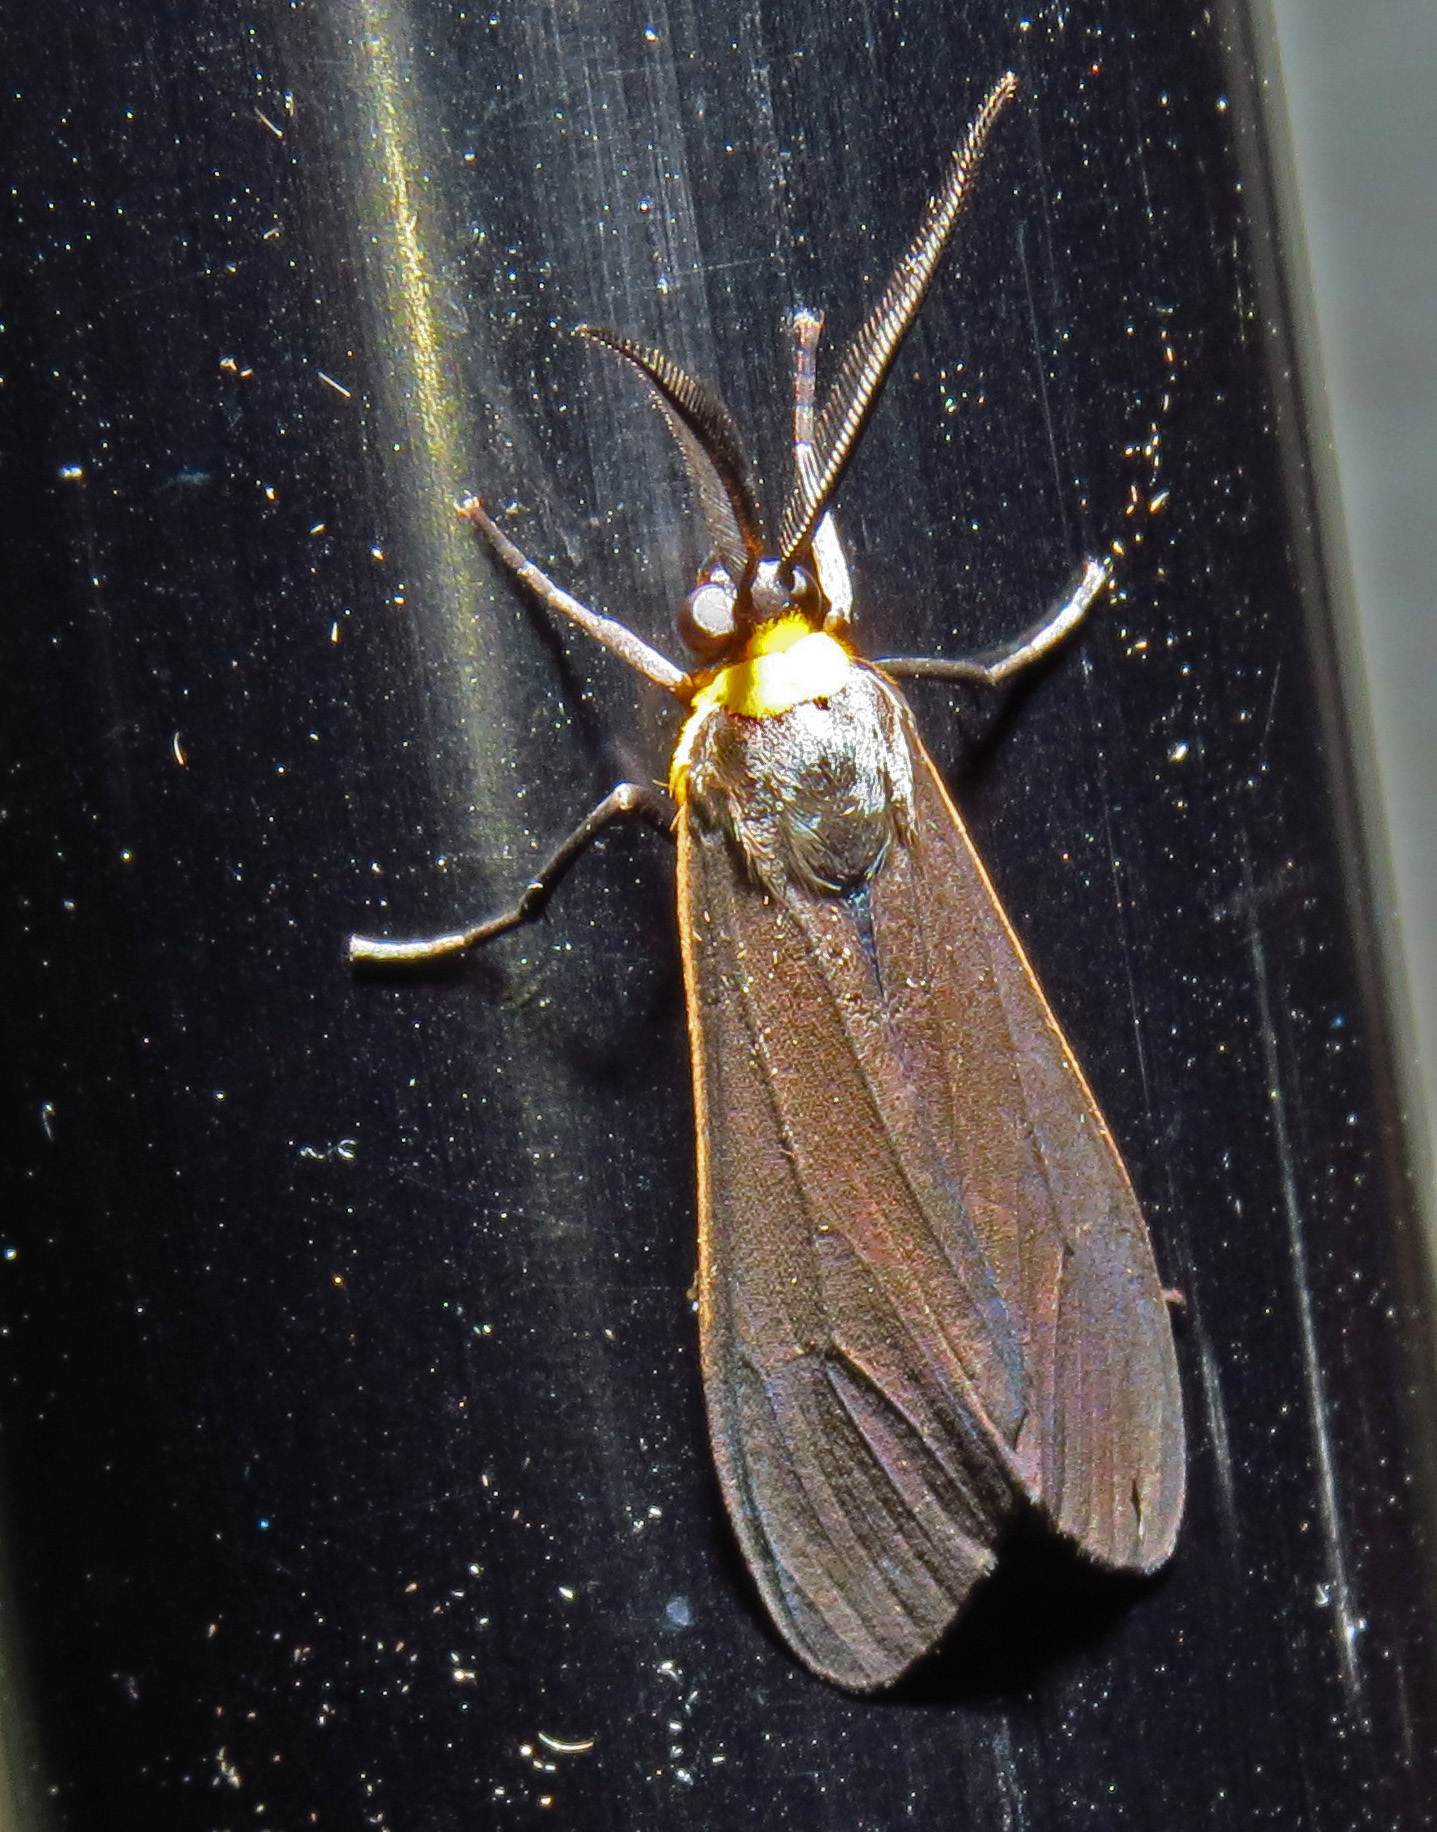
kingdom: Animalia
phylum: Arthropoda
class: Insecta
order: Lepidoptera
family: Erebidae
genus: Cisseps
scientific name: Cisseps fulvicollis
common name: Yellow-collared scape moth
